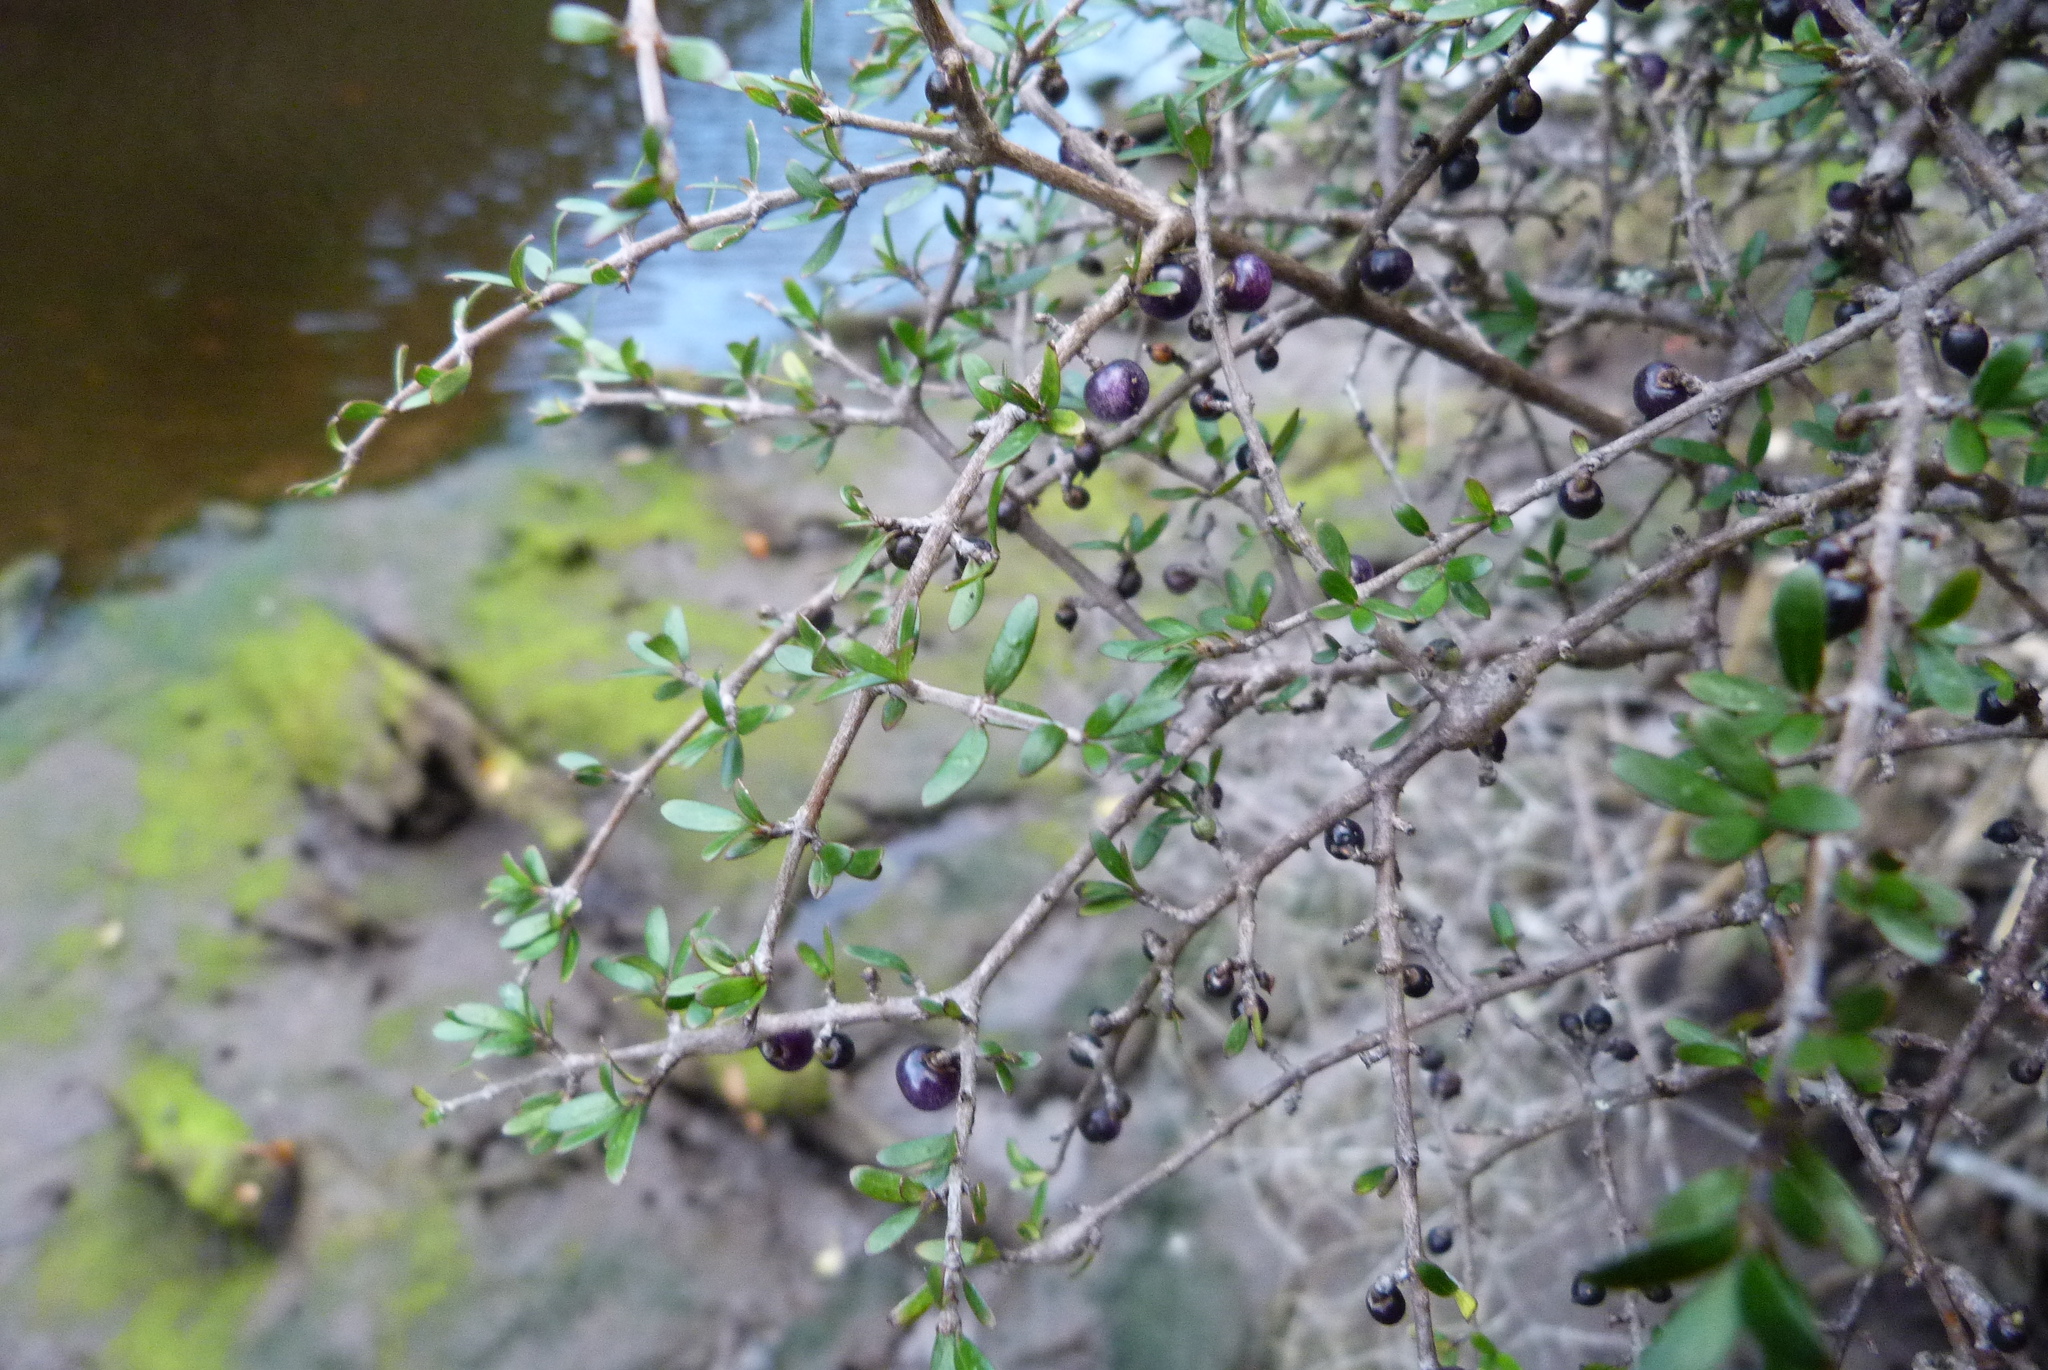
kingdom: Plantae
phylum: Tracheophyta
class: Magnoliopsida
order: Gentianales
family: Rubiaceae
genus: Coprosma
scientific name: Coprosma propinqua
